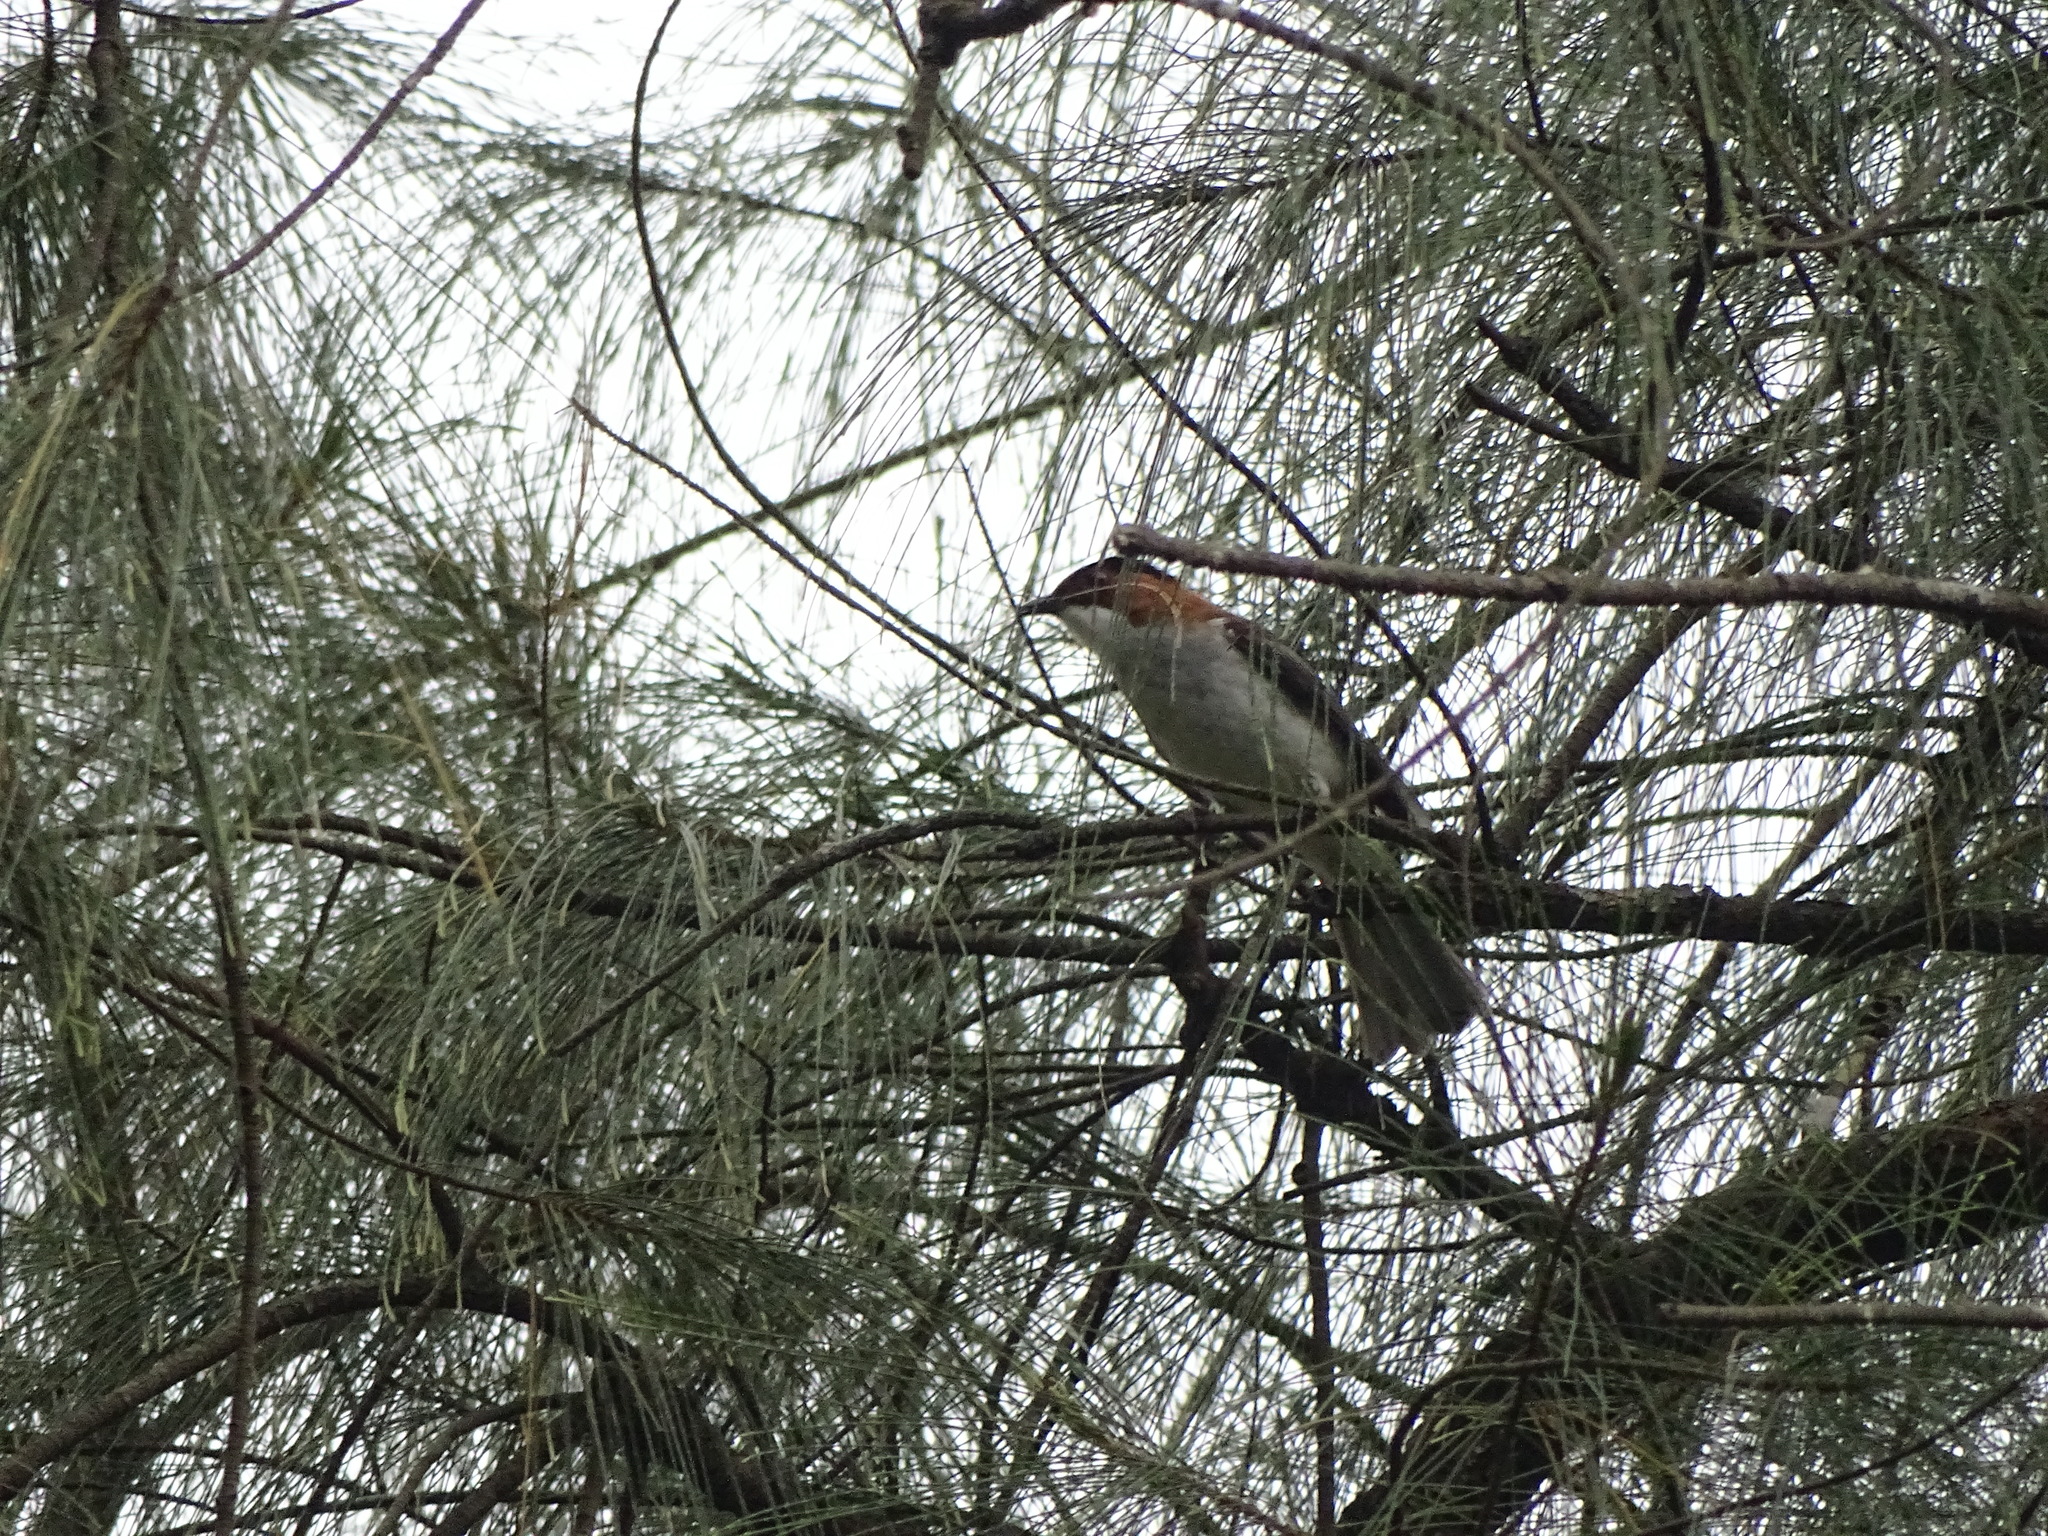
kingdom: Animalia
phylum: Chordata
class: Aves
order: Passeriformes
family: Pycnonotidae
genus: Hemixos
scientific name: Hemixos castanonotus
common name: Chestnut bulbul
